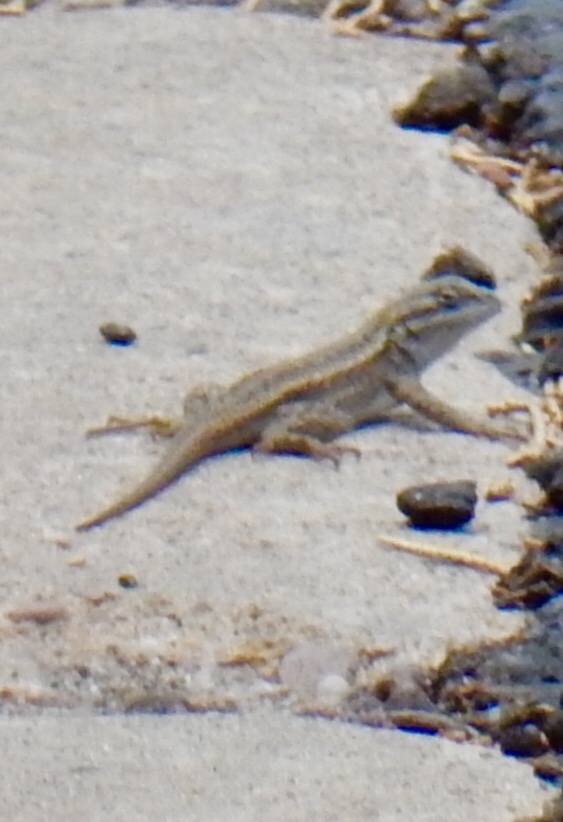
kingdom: Animalia
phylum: Chordata
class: Squamata
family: Phrynosomatidae
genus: Sceloporus
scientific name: Sceloporus tristichus
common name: Plateau fence lizard
